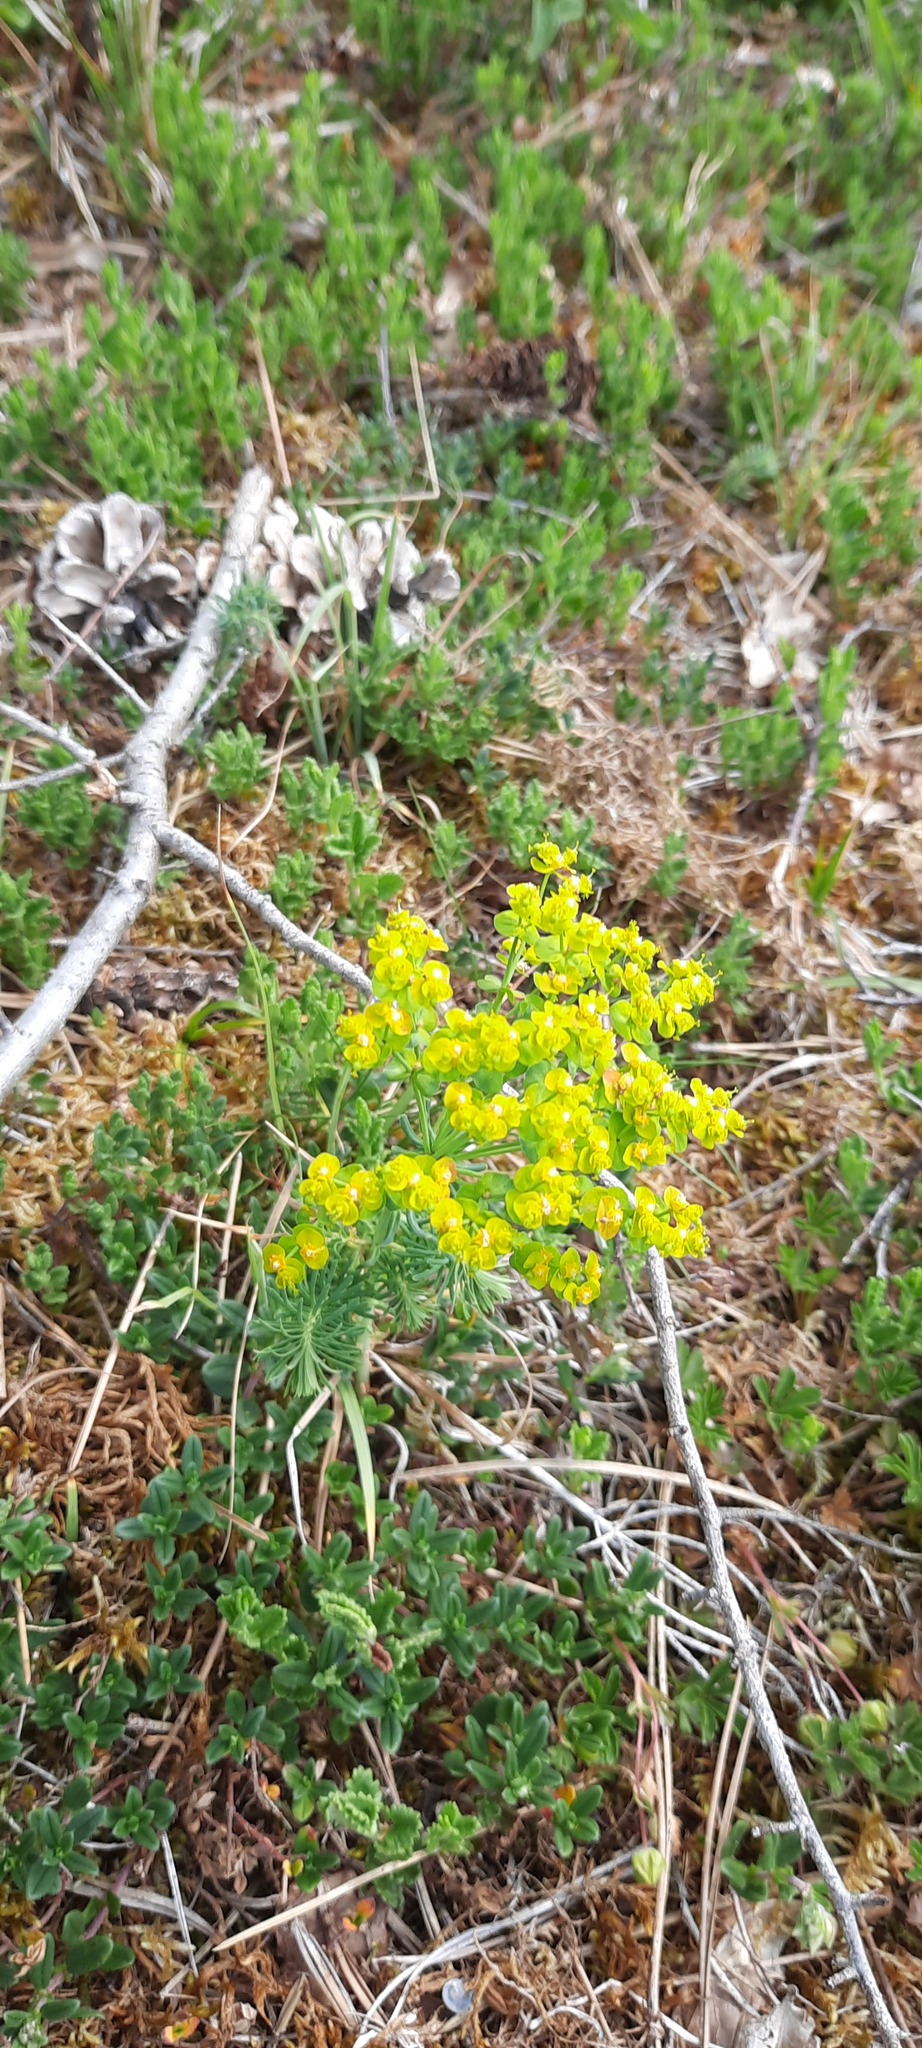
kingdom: Plantae
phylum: Tracheophyta
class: Magnoliopsida
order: Malpighiales
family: Euphorbiaceae
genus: Euphorbia
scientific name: Euphorbia cyparissias
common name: Cypress spurge
